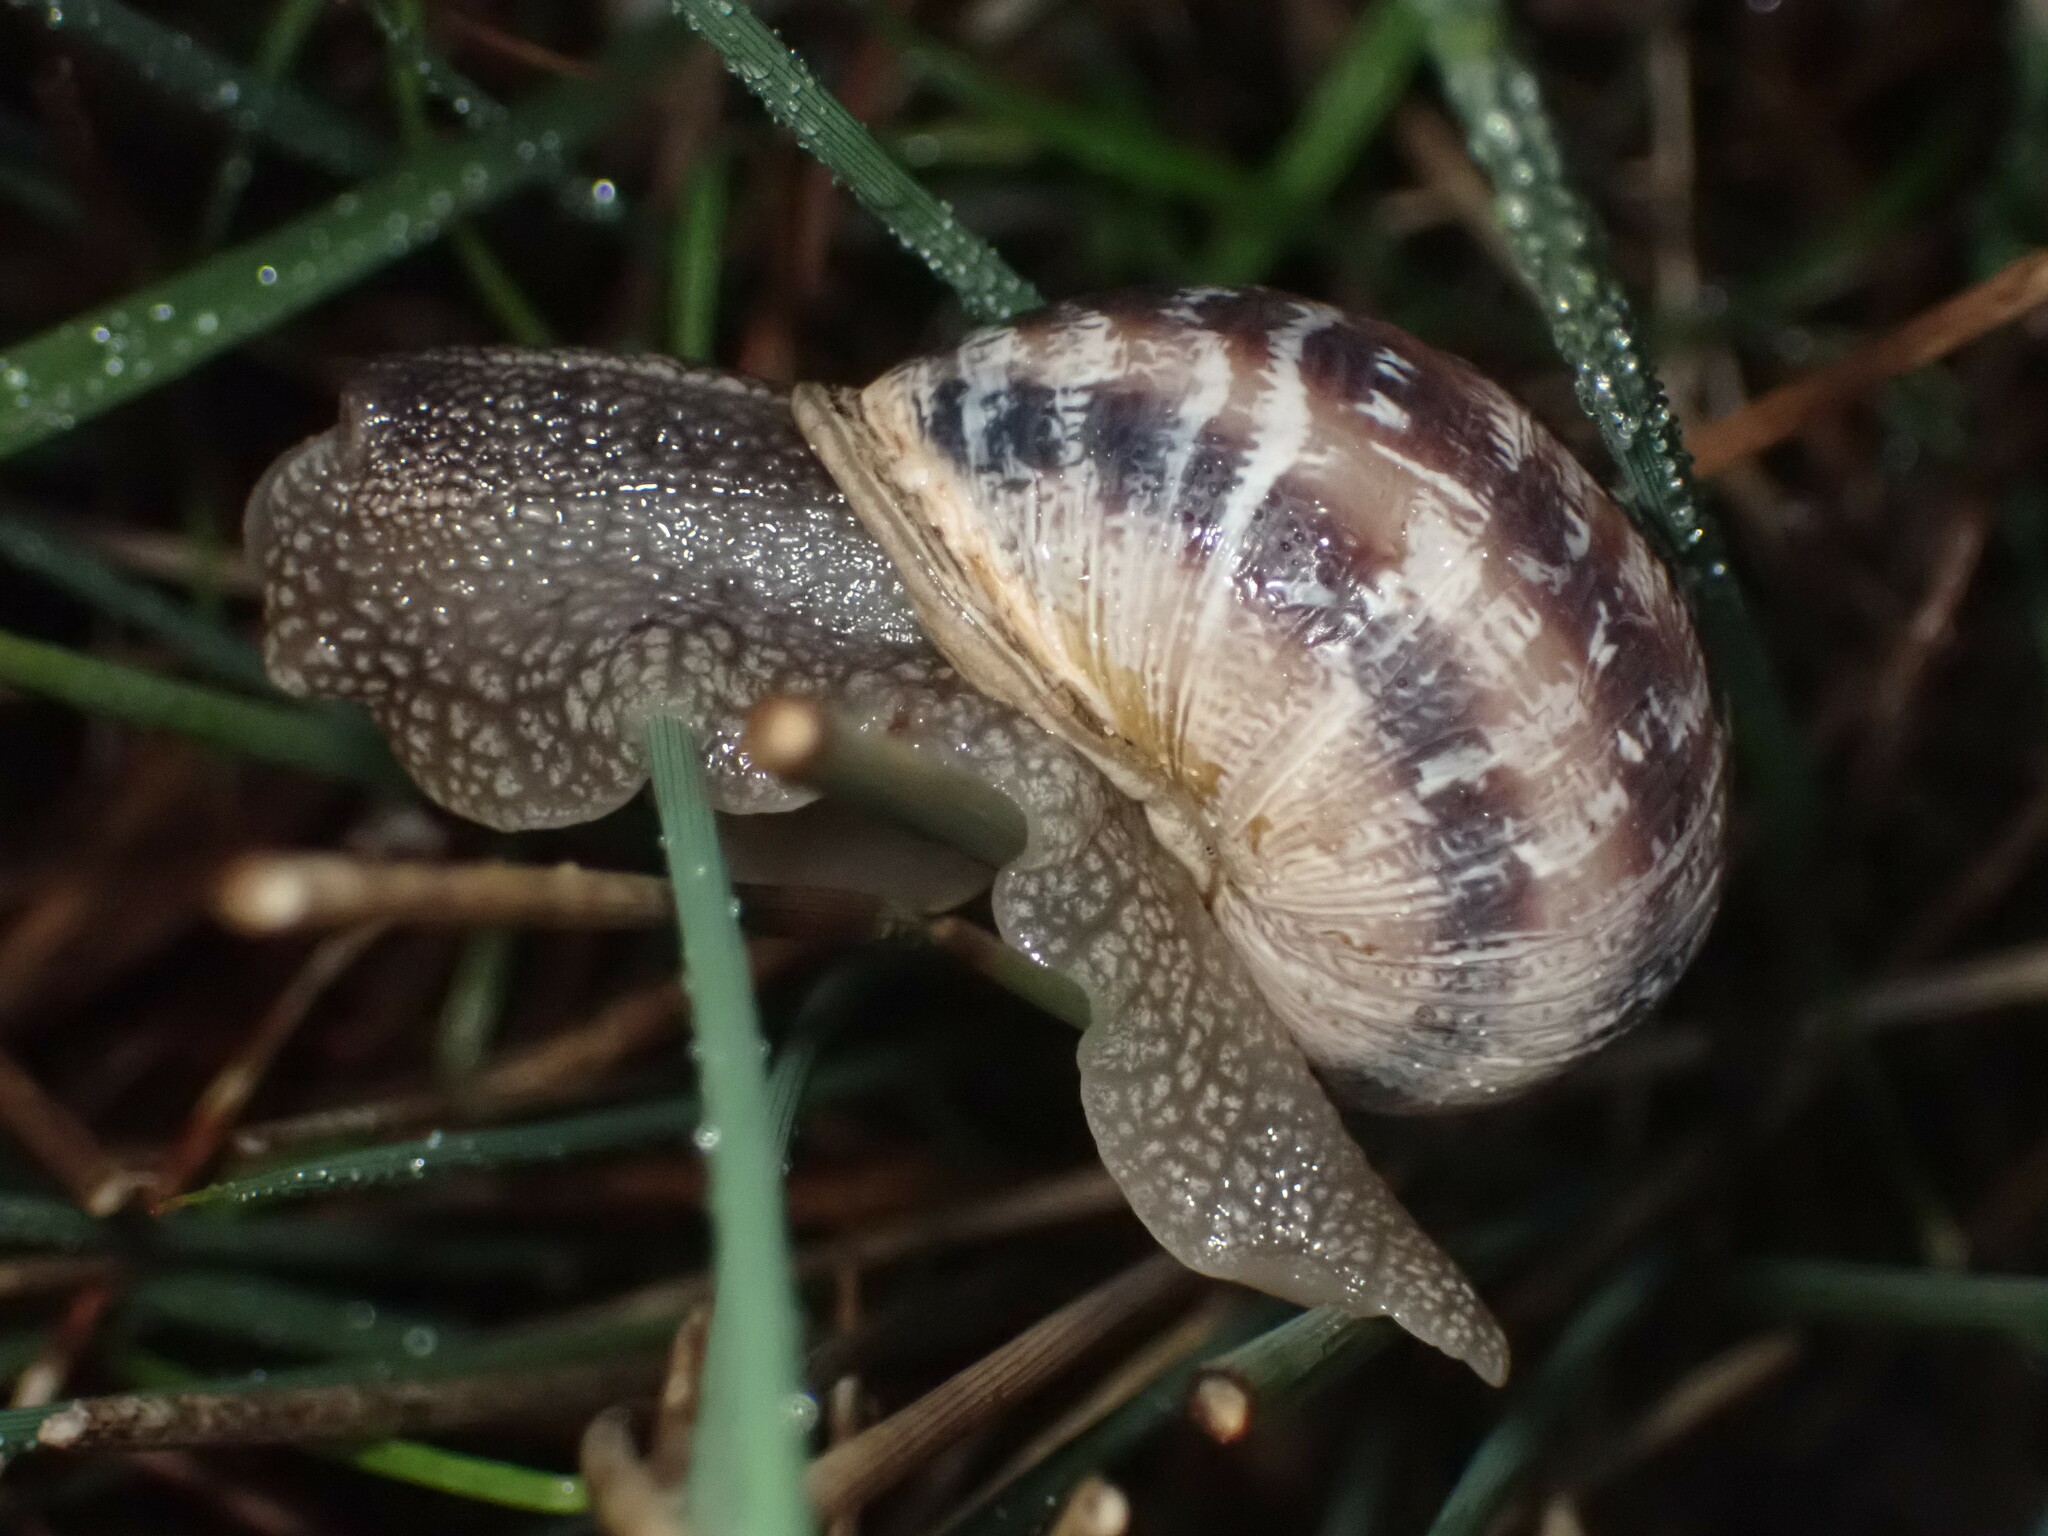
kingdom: Animalia
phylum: Mollusca
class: Gastropoda
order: Stylommatophora
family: Helicidae
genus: Cornu
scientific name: Cornu aspersum
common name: Brown garden snail
